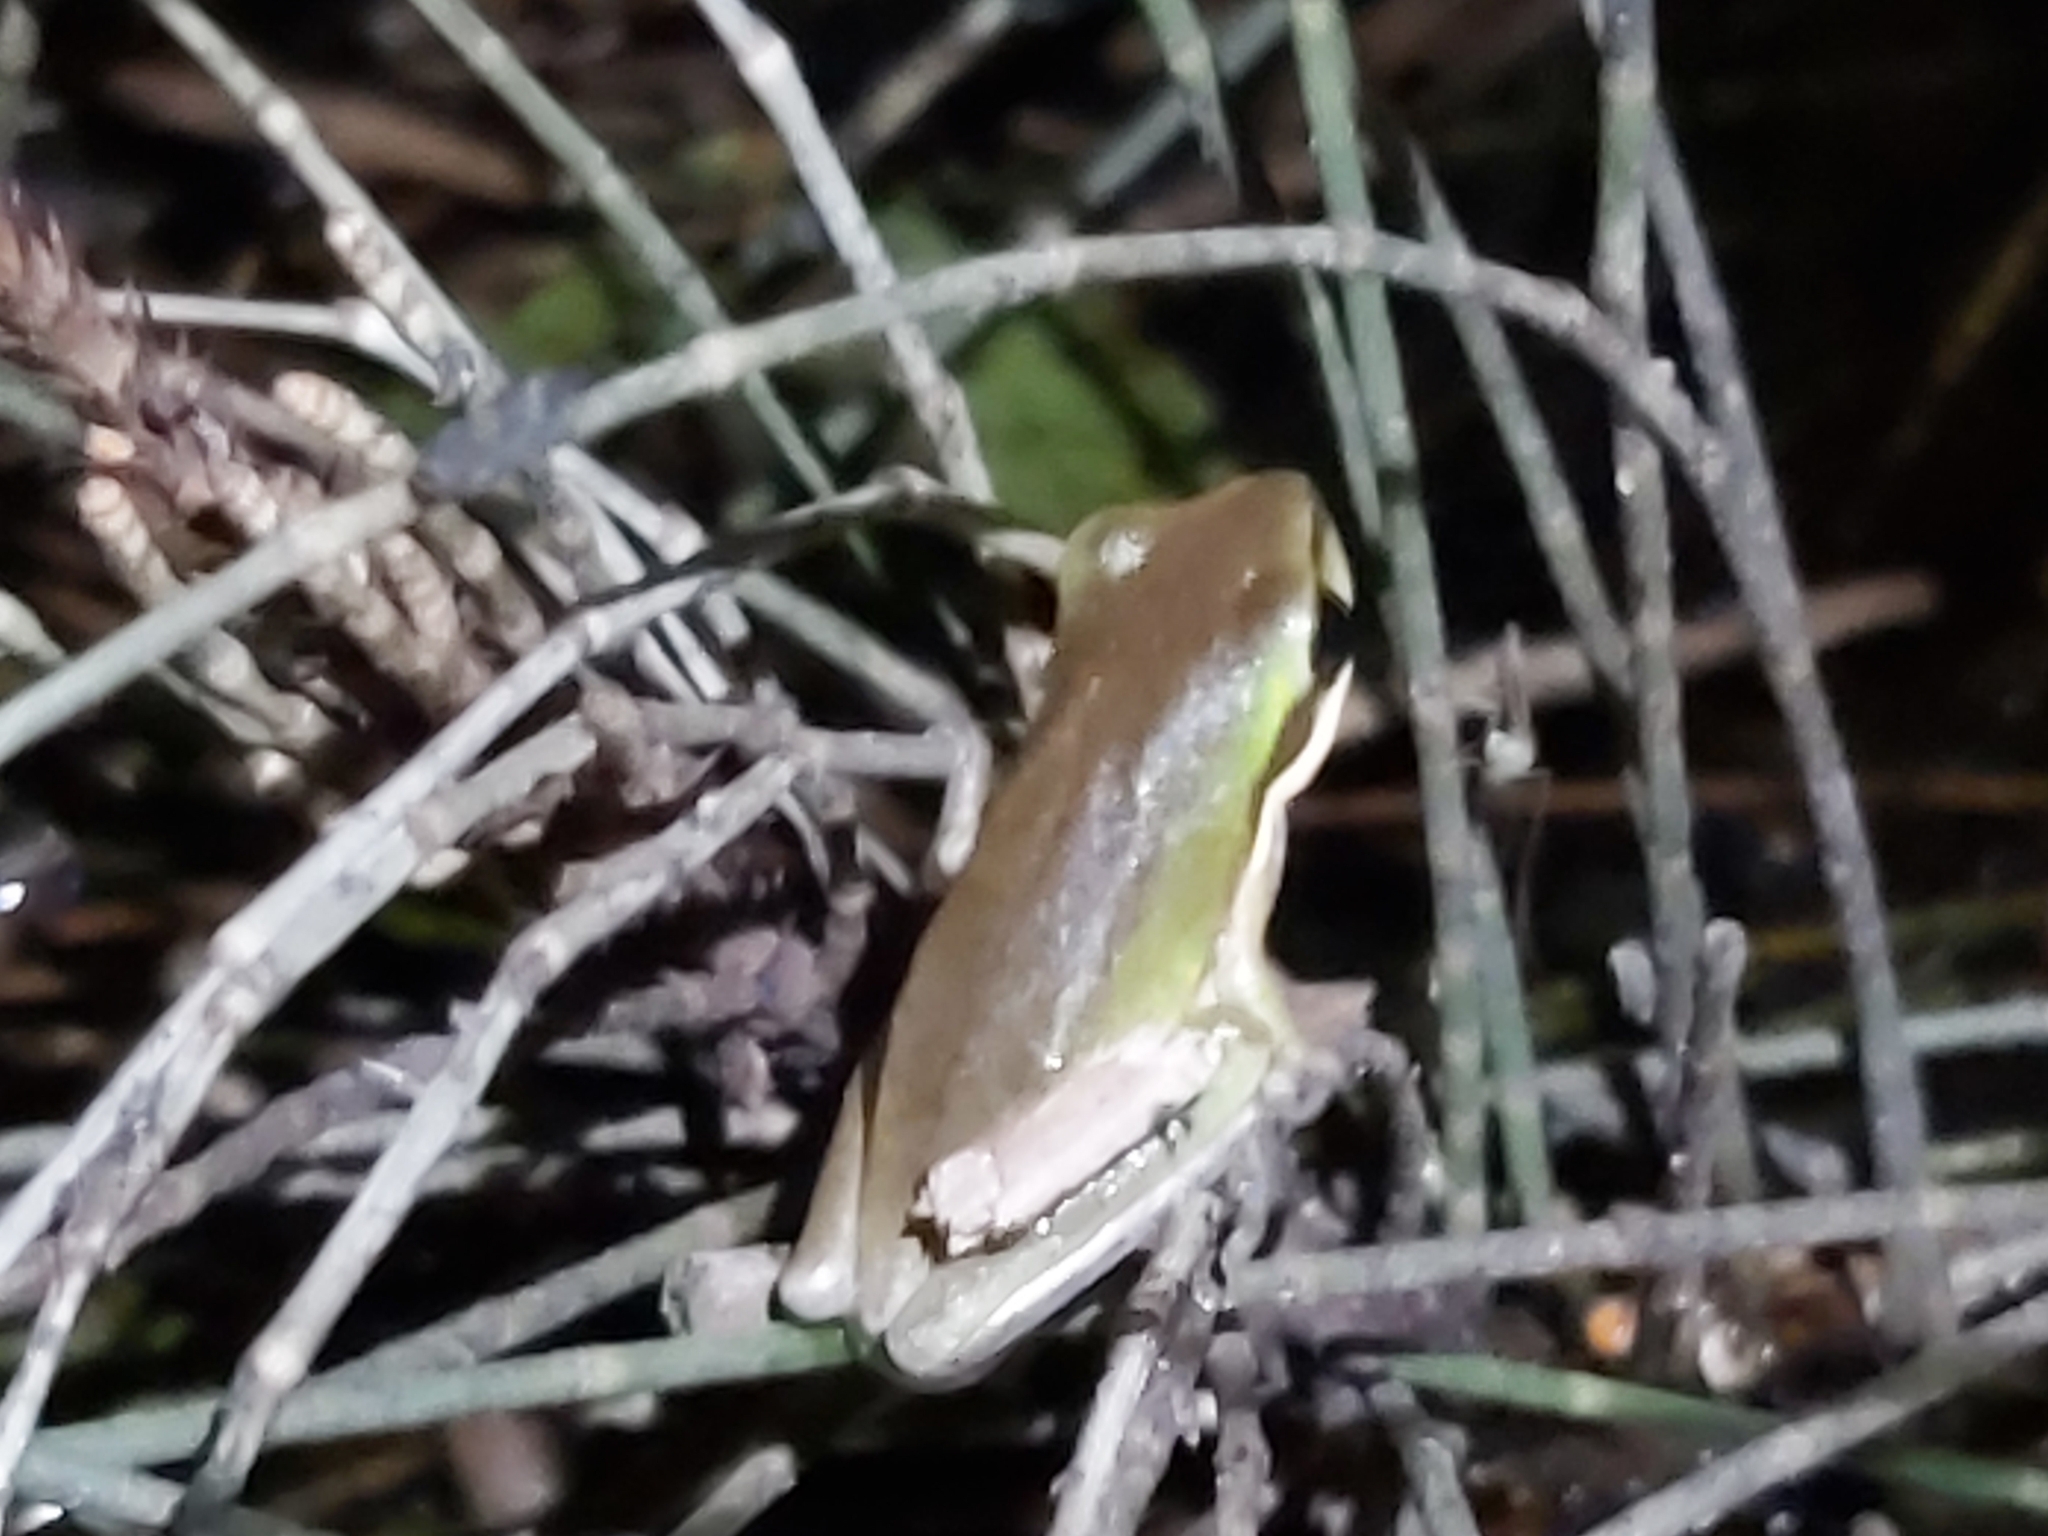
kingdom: Animalia
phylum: Chordata
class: Amphibia
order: Anura
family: Pelodryadidae
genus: Litoria
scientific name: Litoria fallax
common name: Eastern dwarf treefrog
